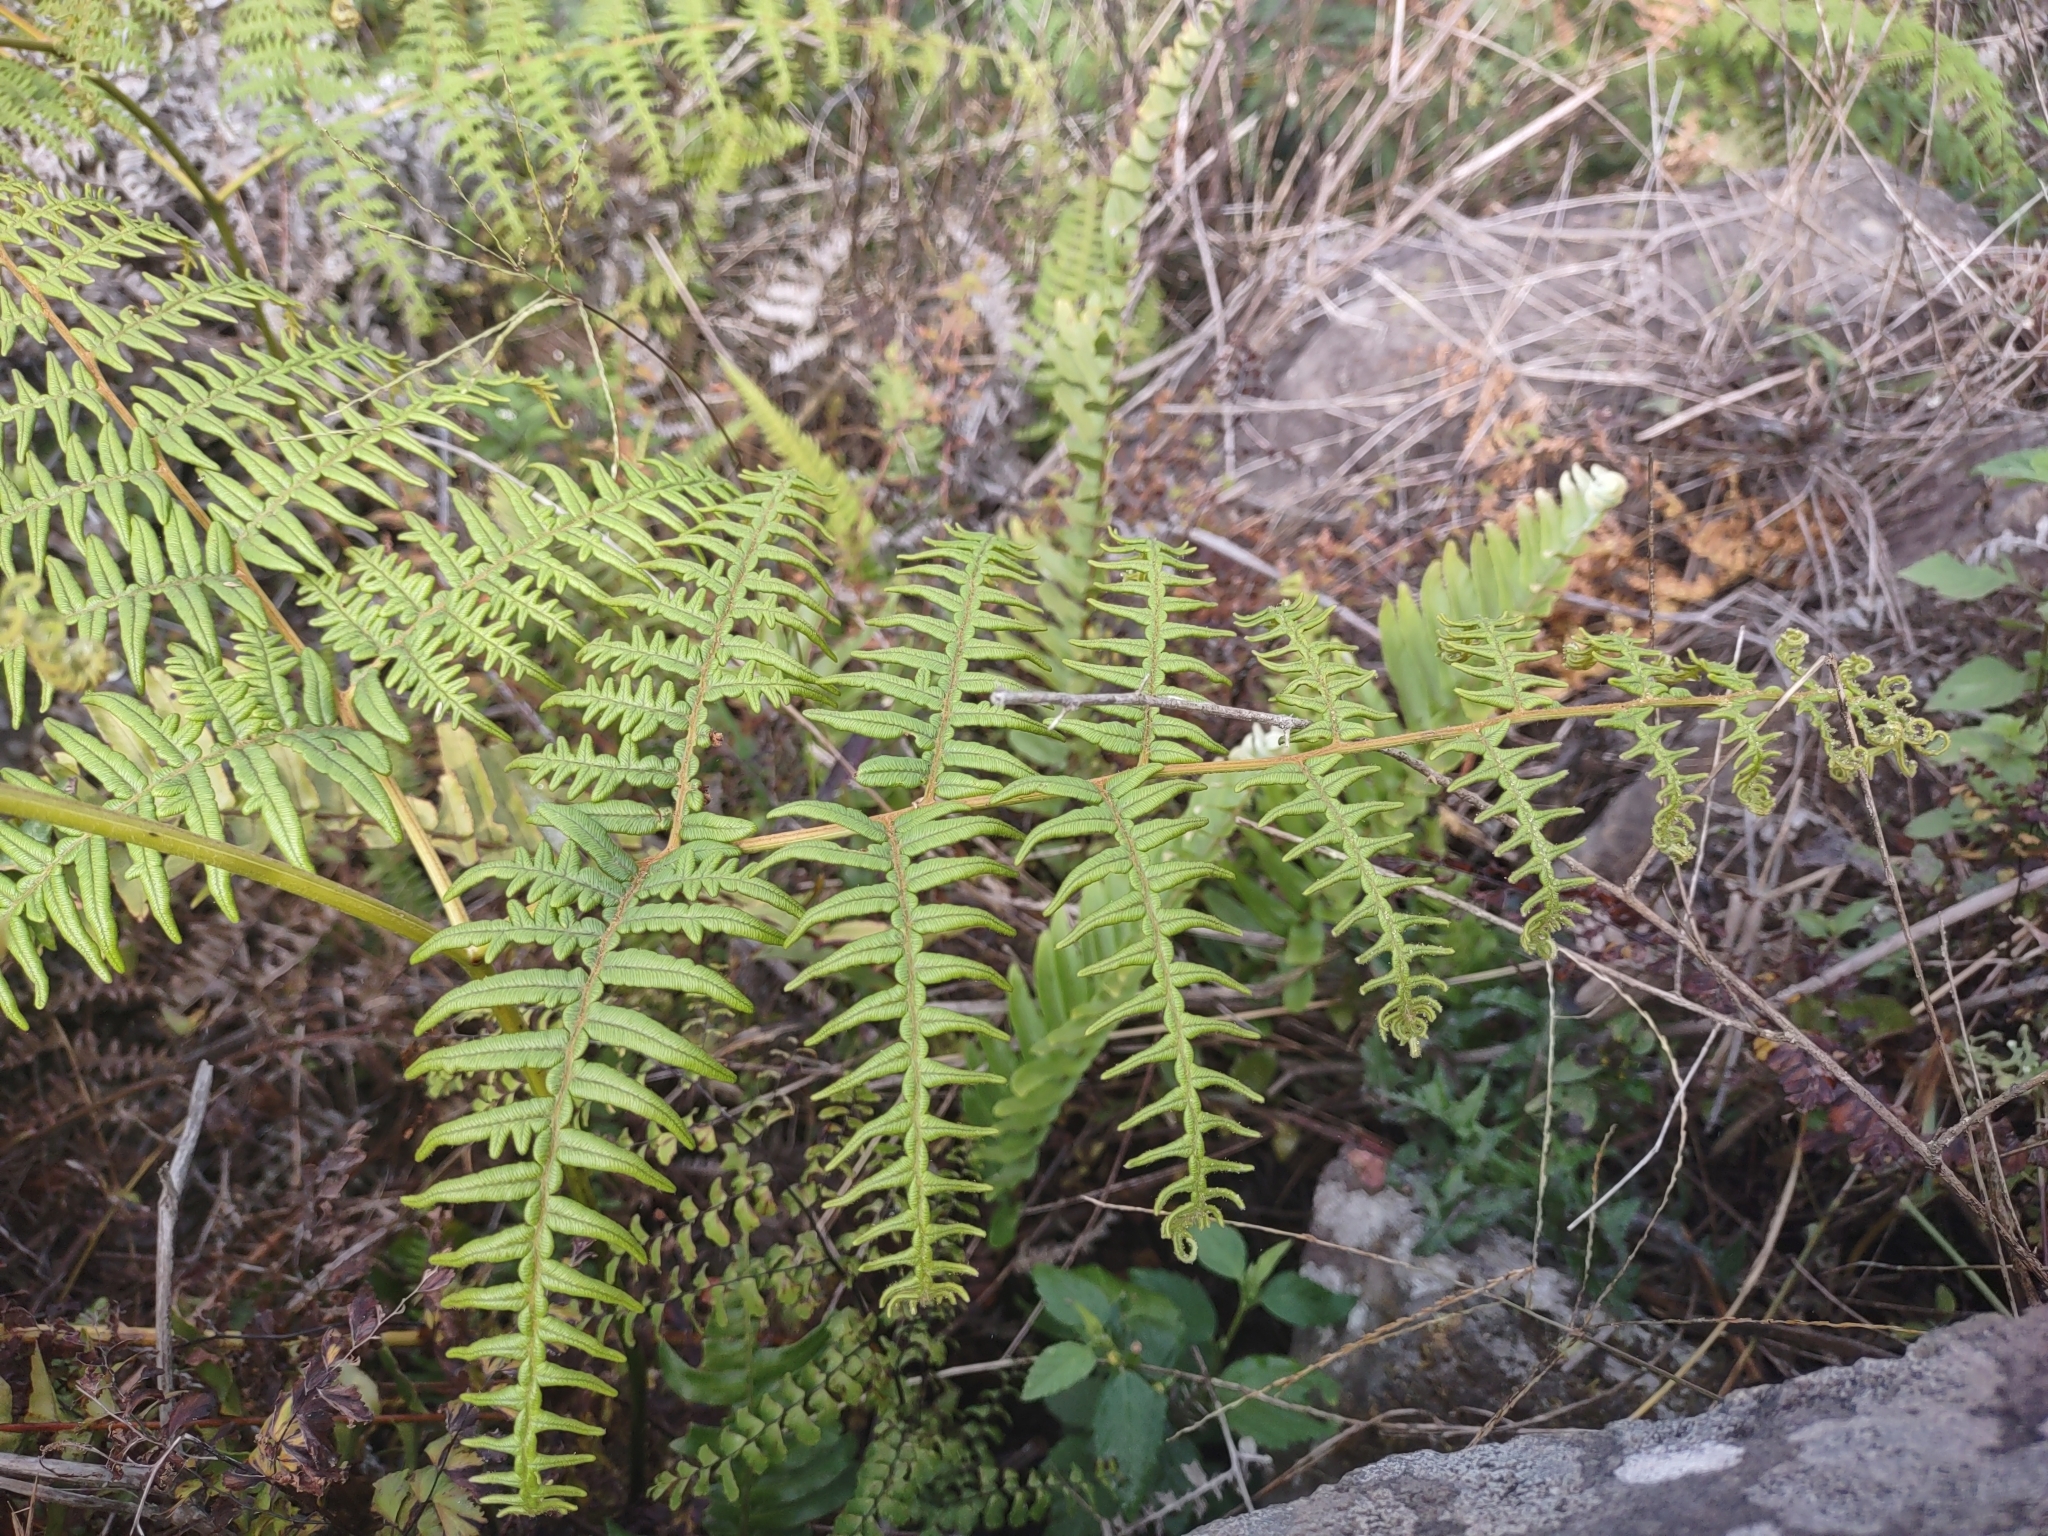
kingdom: Plantae
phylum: Tracheophyta
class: Polypodiopsida
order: Polypodiales
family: Dennstaedtiaceae
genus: Pteridium
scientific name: Pteridium esculentum
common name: Bracken fern
